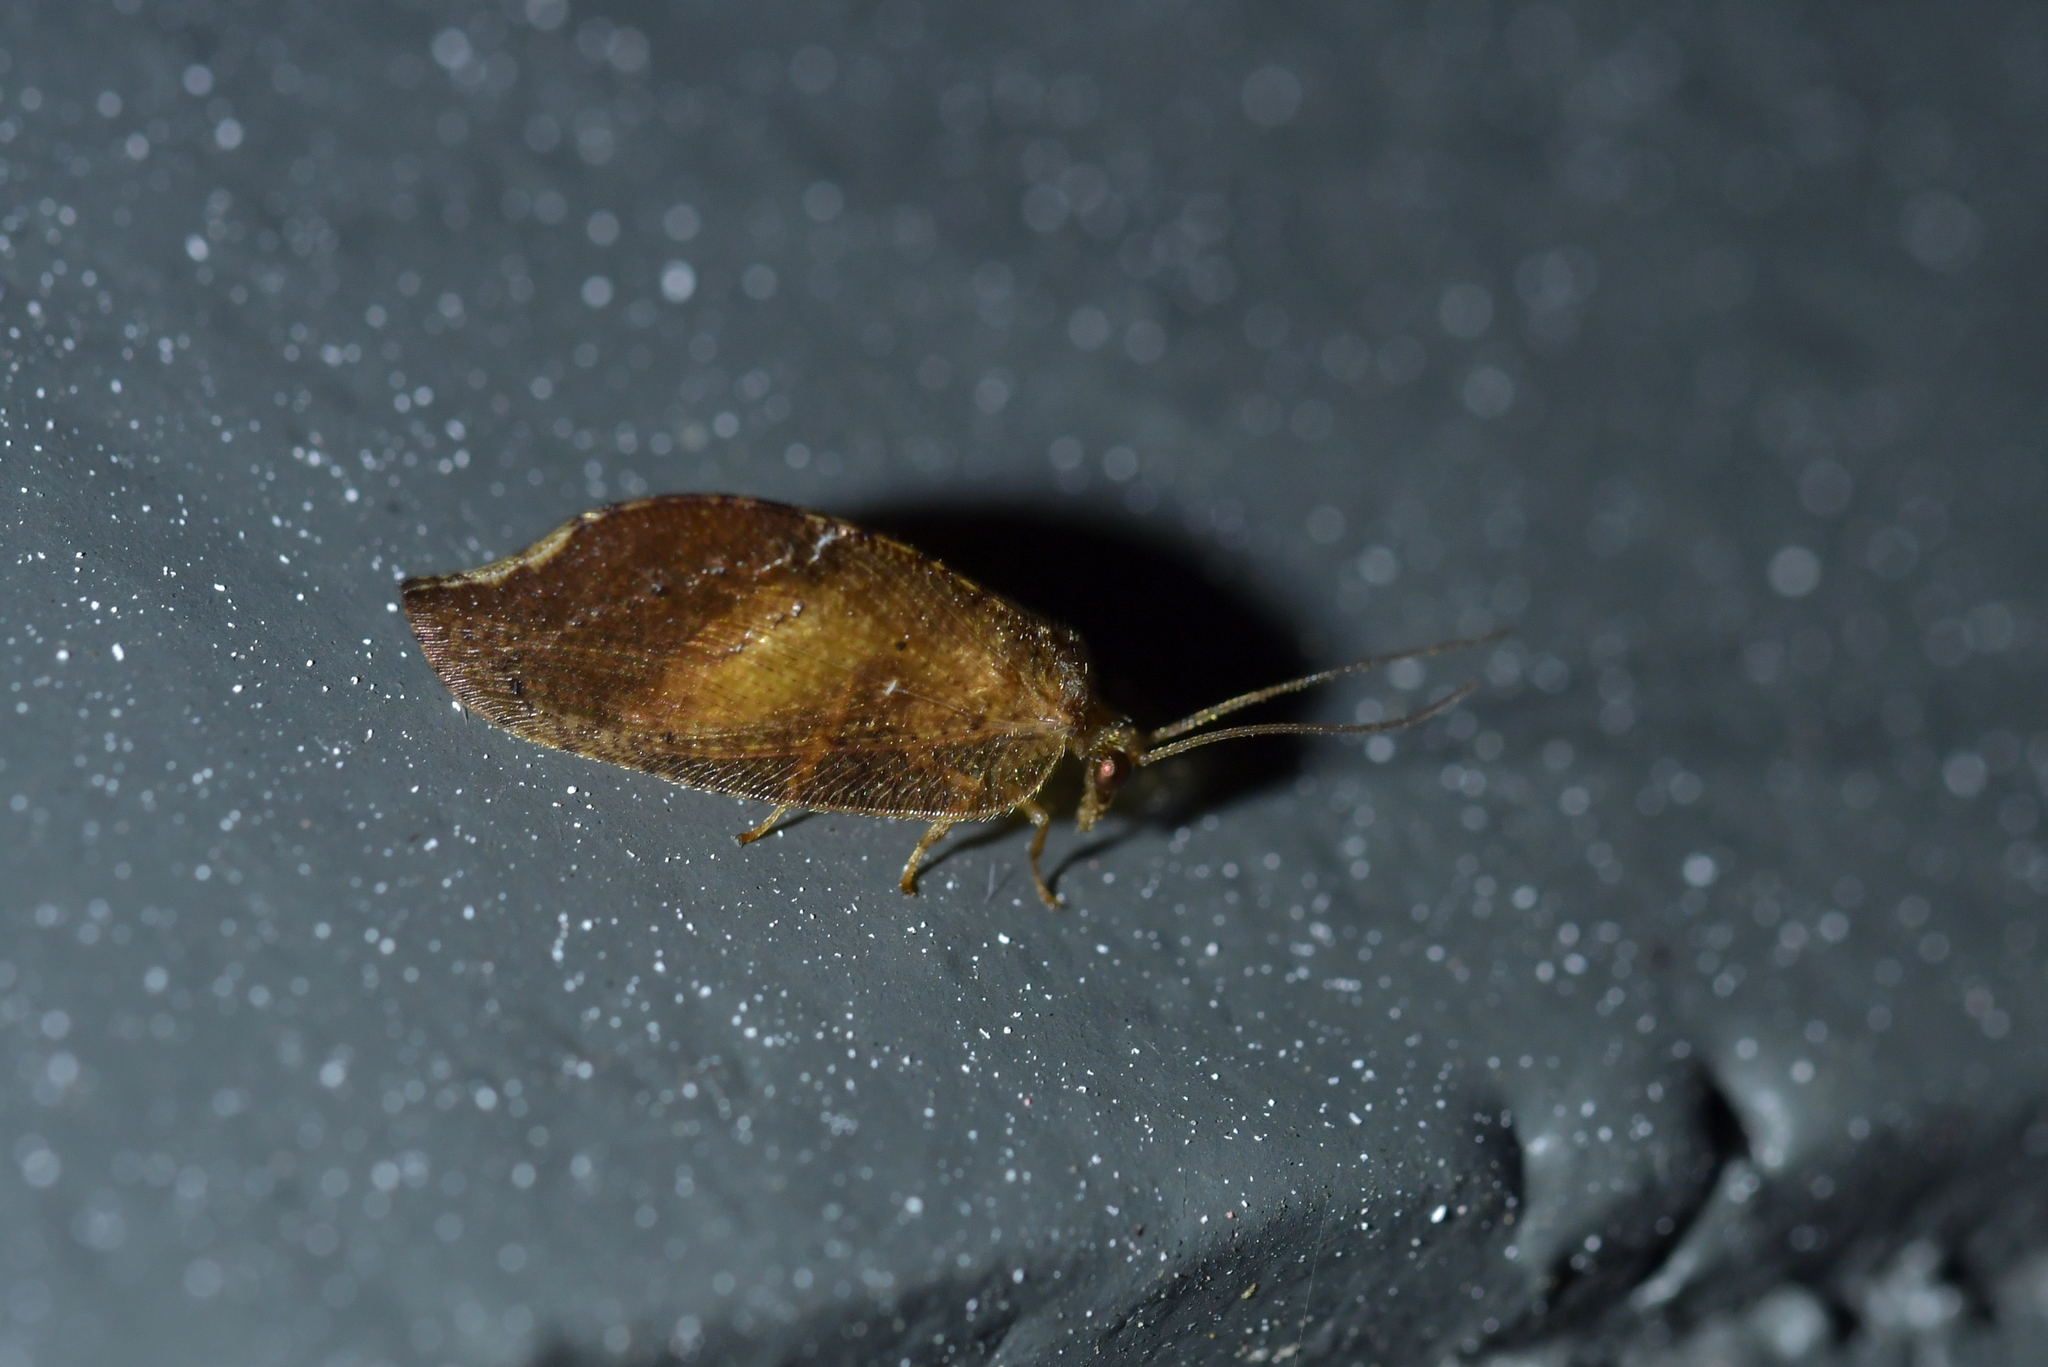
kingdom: Animalia
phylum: Arthropoda
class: Insecta
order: Neuroptera
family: Hemerobiidae
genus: Drepanacra
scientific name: Drepanacra binocula
